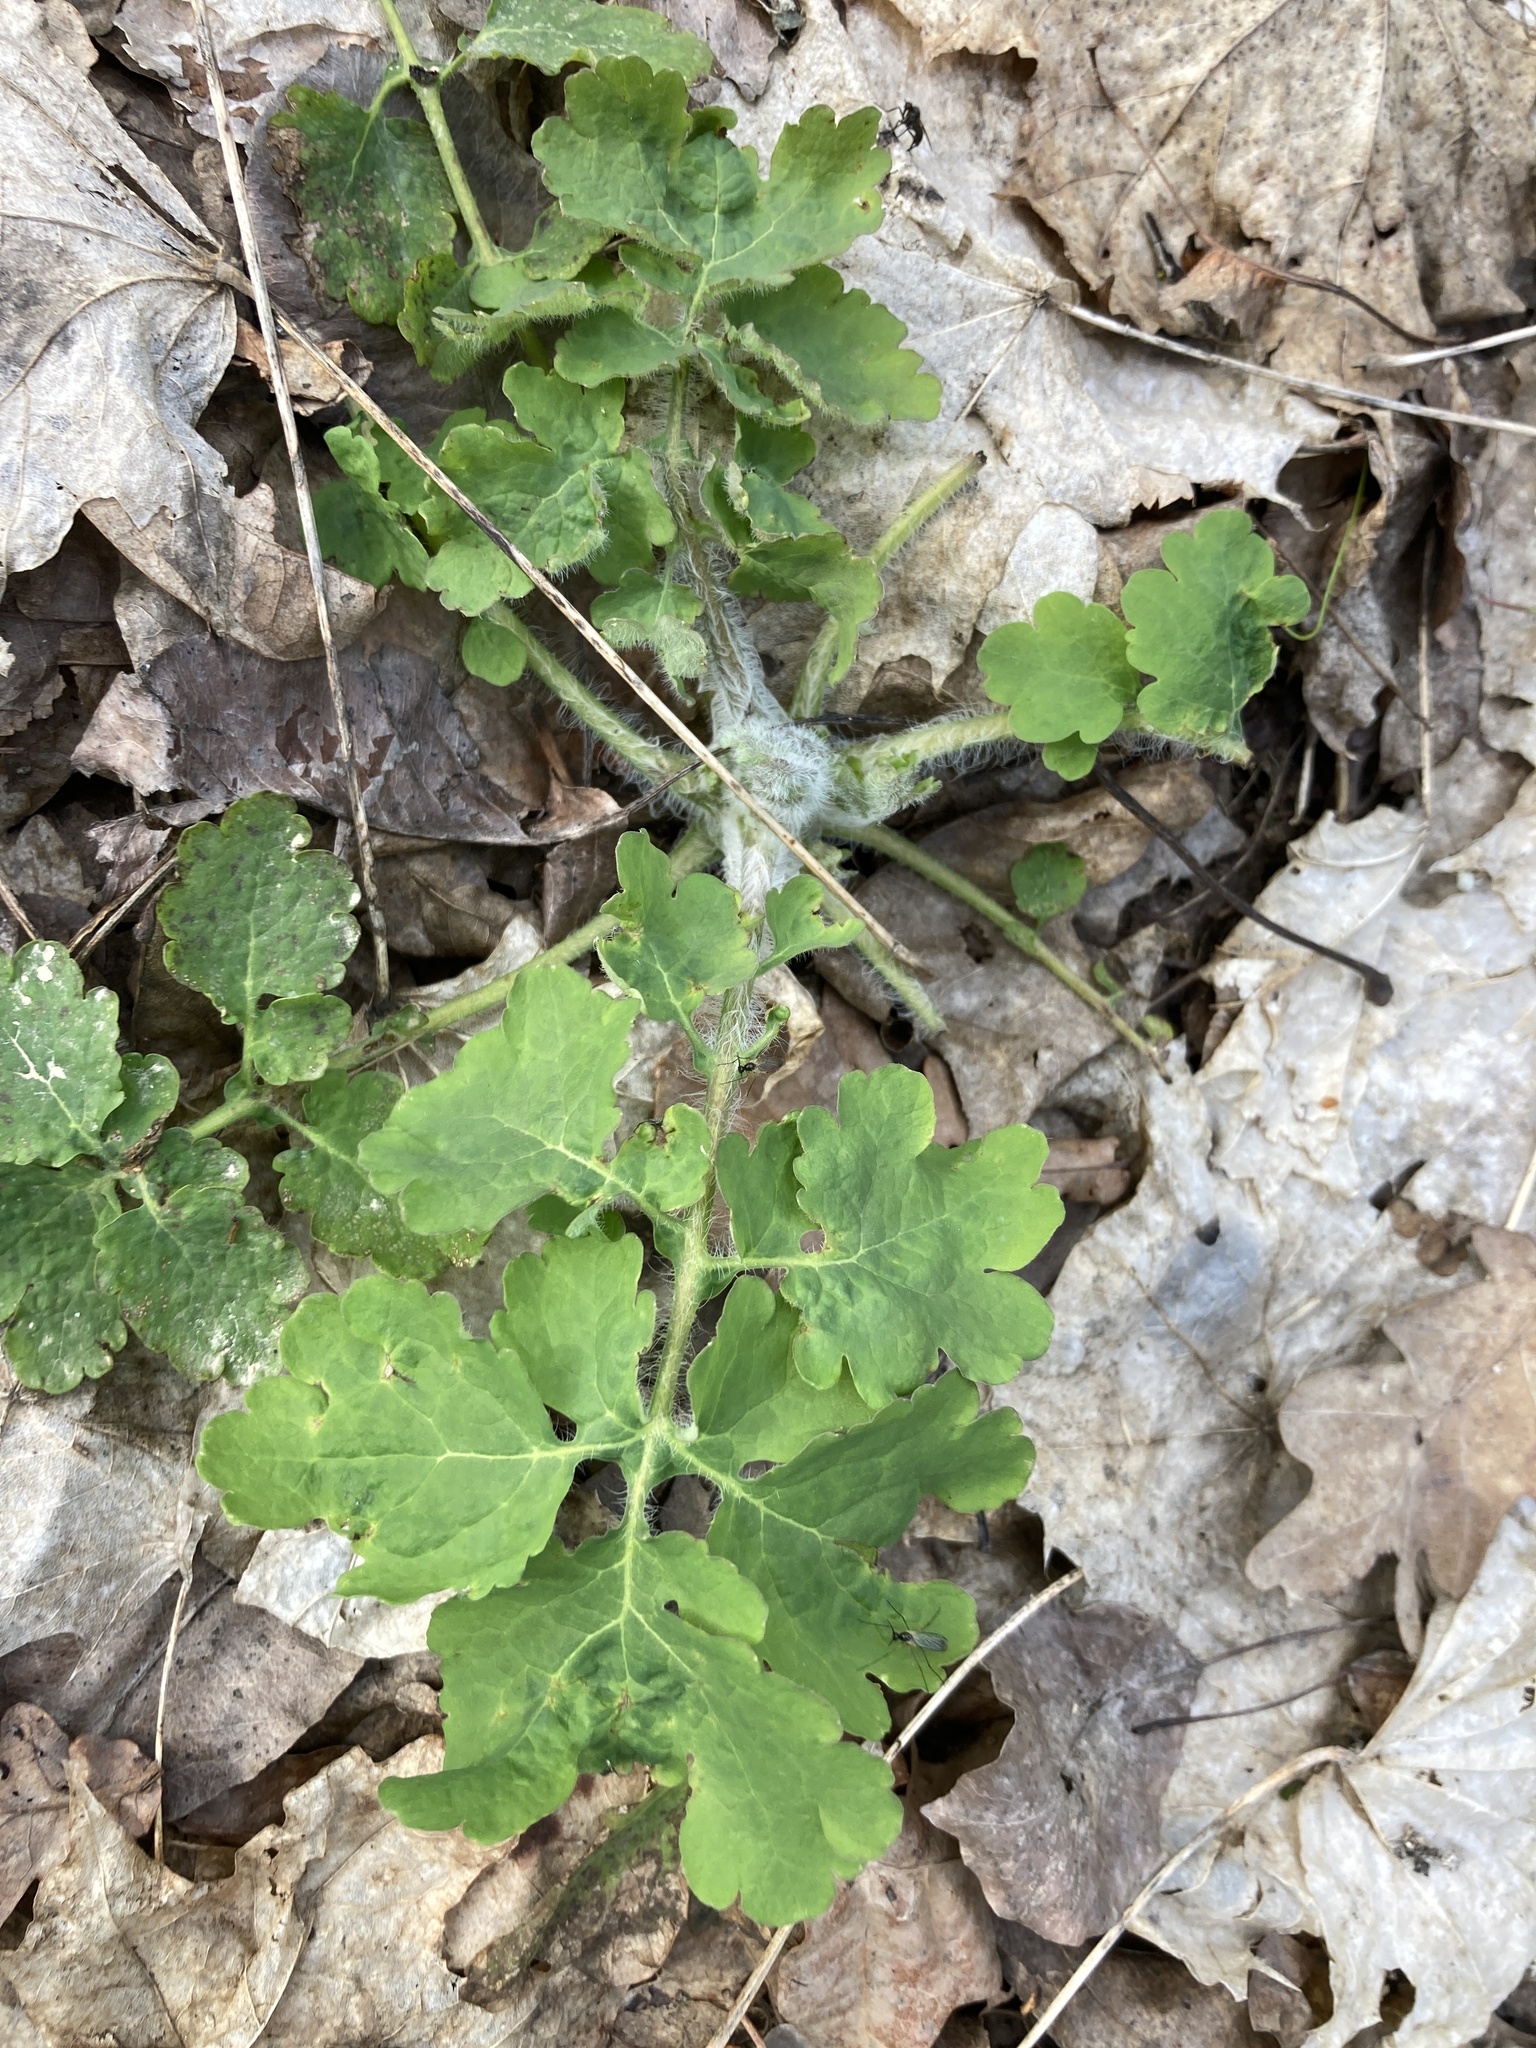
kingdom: Plantae
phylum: Tracheophyta
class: Magnoliopsida
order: Ranunculales
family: Papaveraceae
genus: Chelidonium
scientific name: Chelidonium majus
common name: Greater celandine
